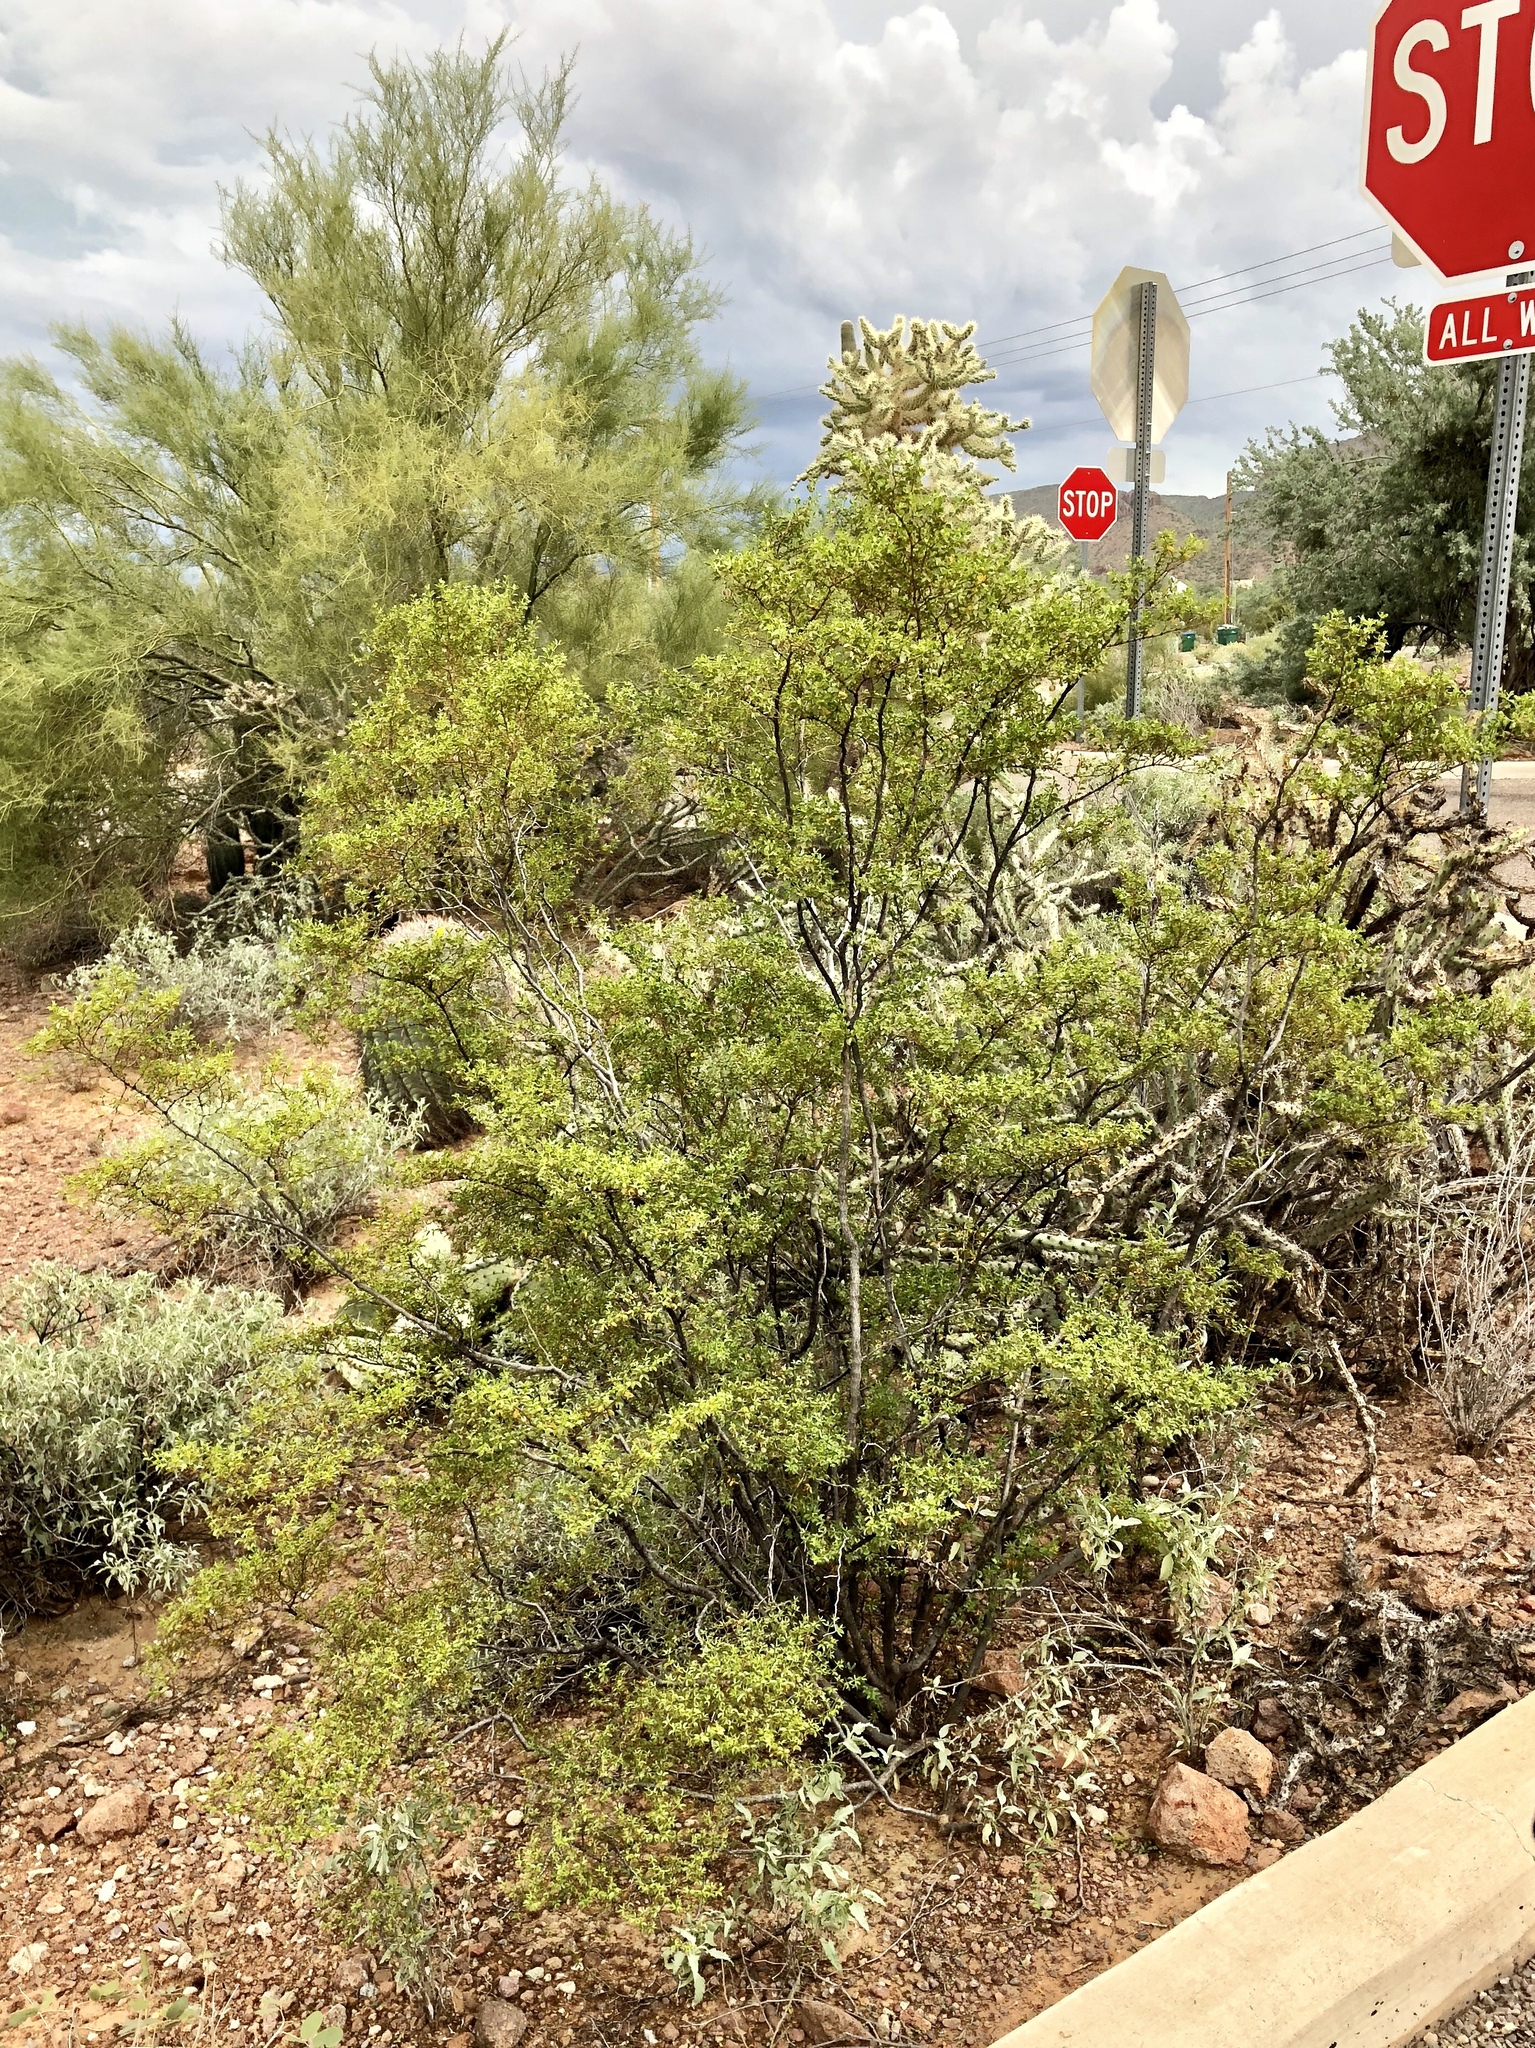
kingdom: Plantae
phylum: Tracheophyta
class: Magnoliopsida
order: Zygophyllales
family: Zygophyllaceae
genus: Larrea
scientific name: Larrea tridentata
